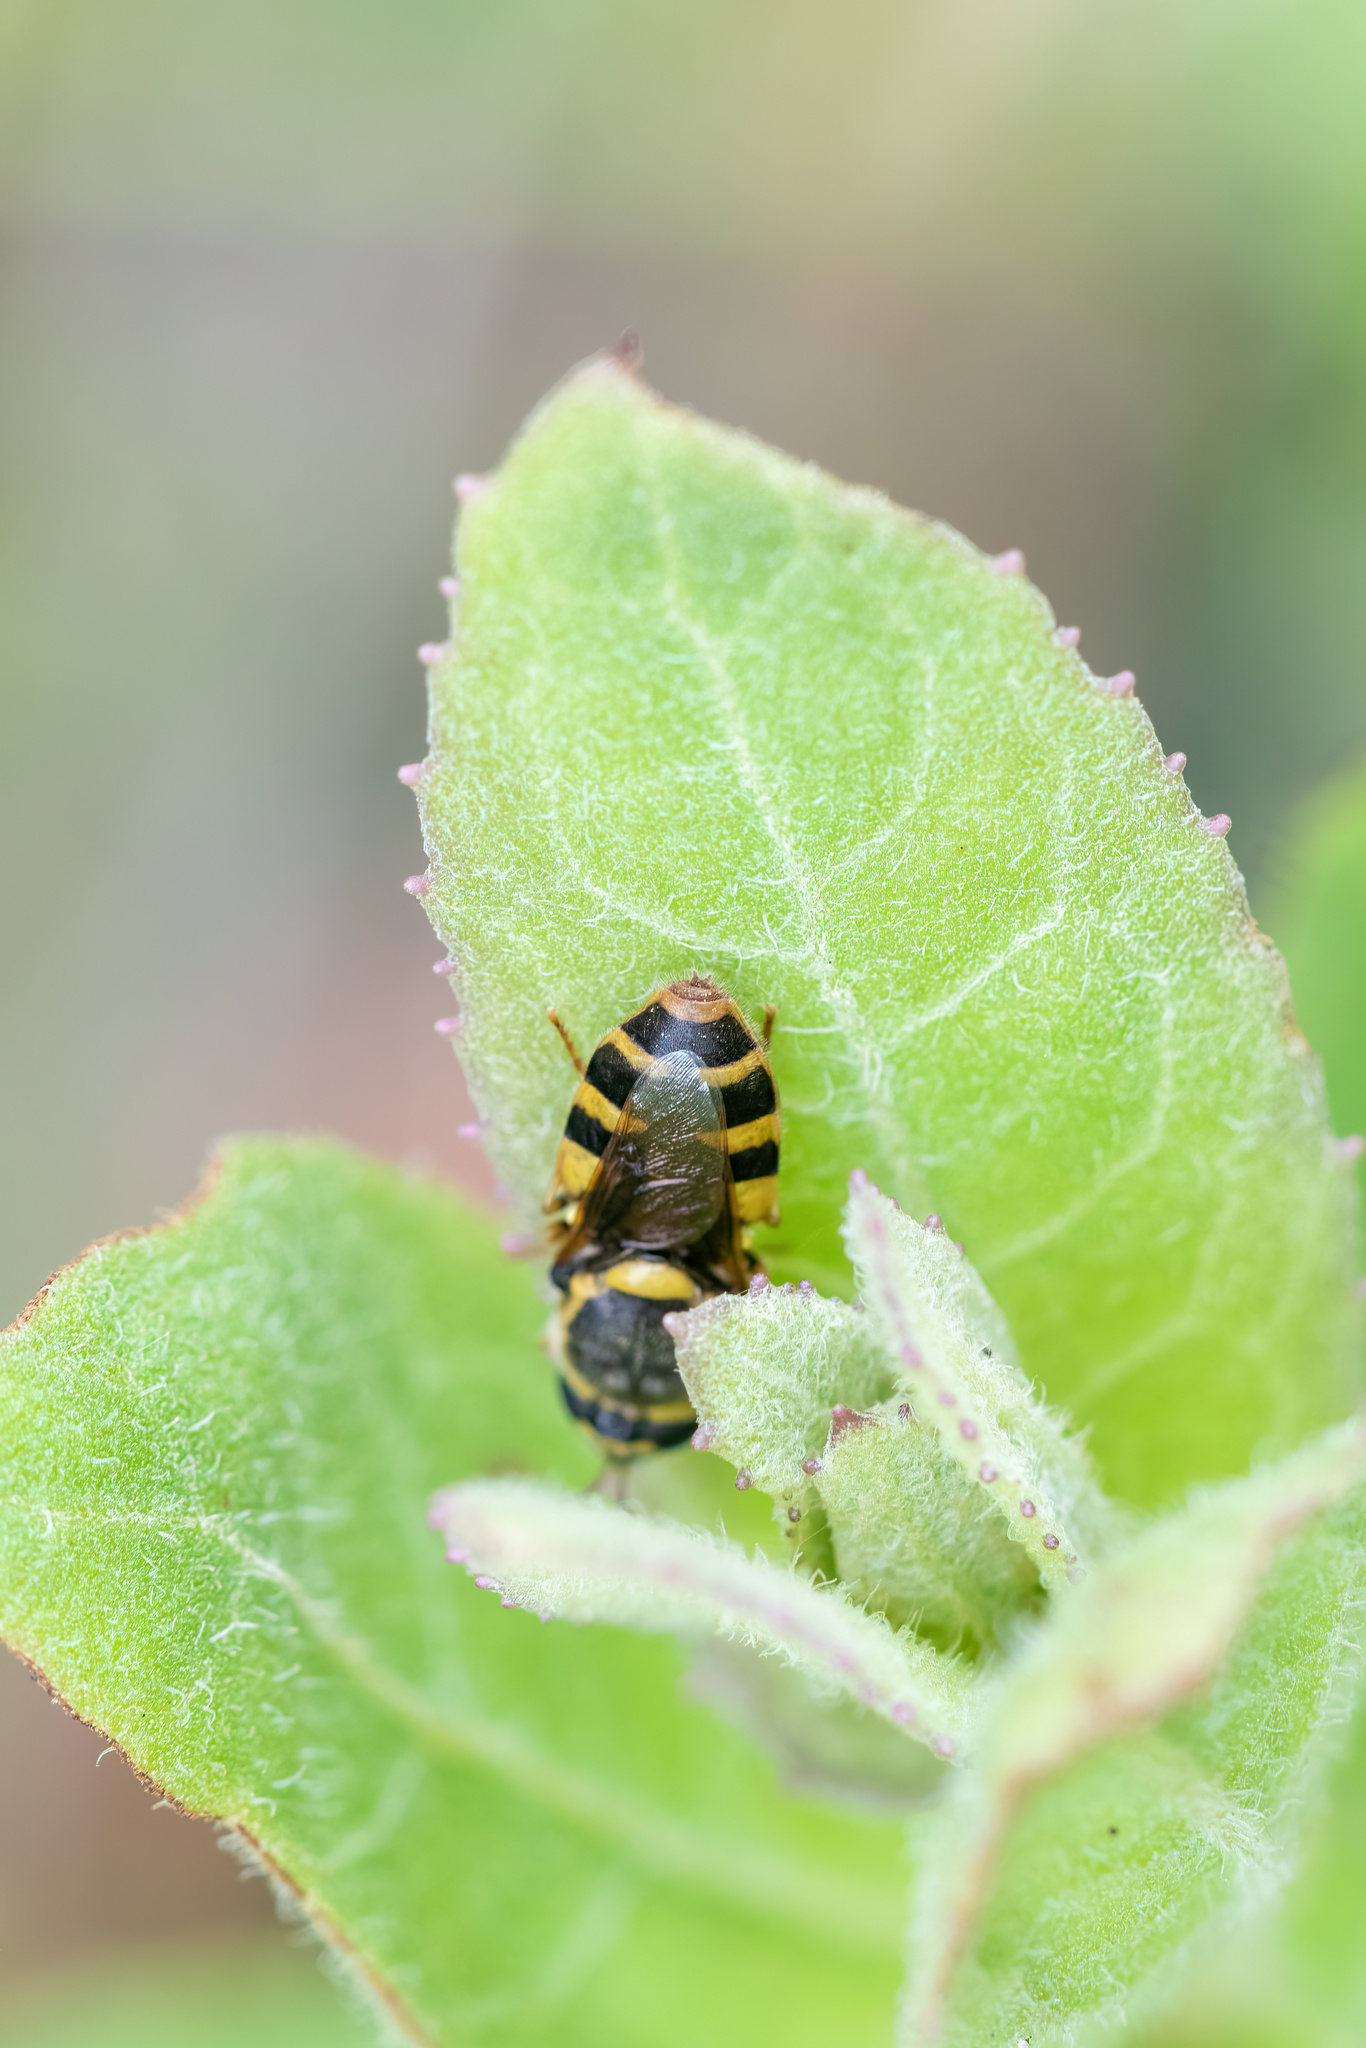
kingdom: Animalia
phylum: Arthropoda
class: Insecta
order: Diptera
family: Stratiomyidae
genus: Odontomyia
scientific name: Odontomyia rufipes
